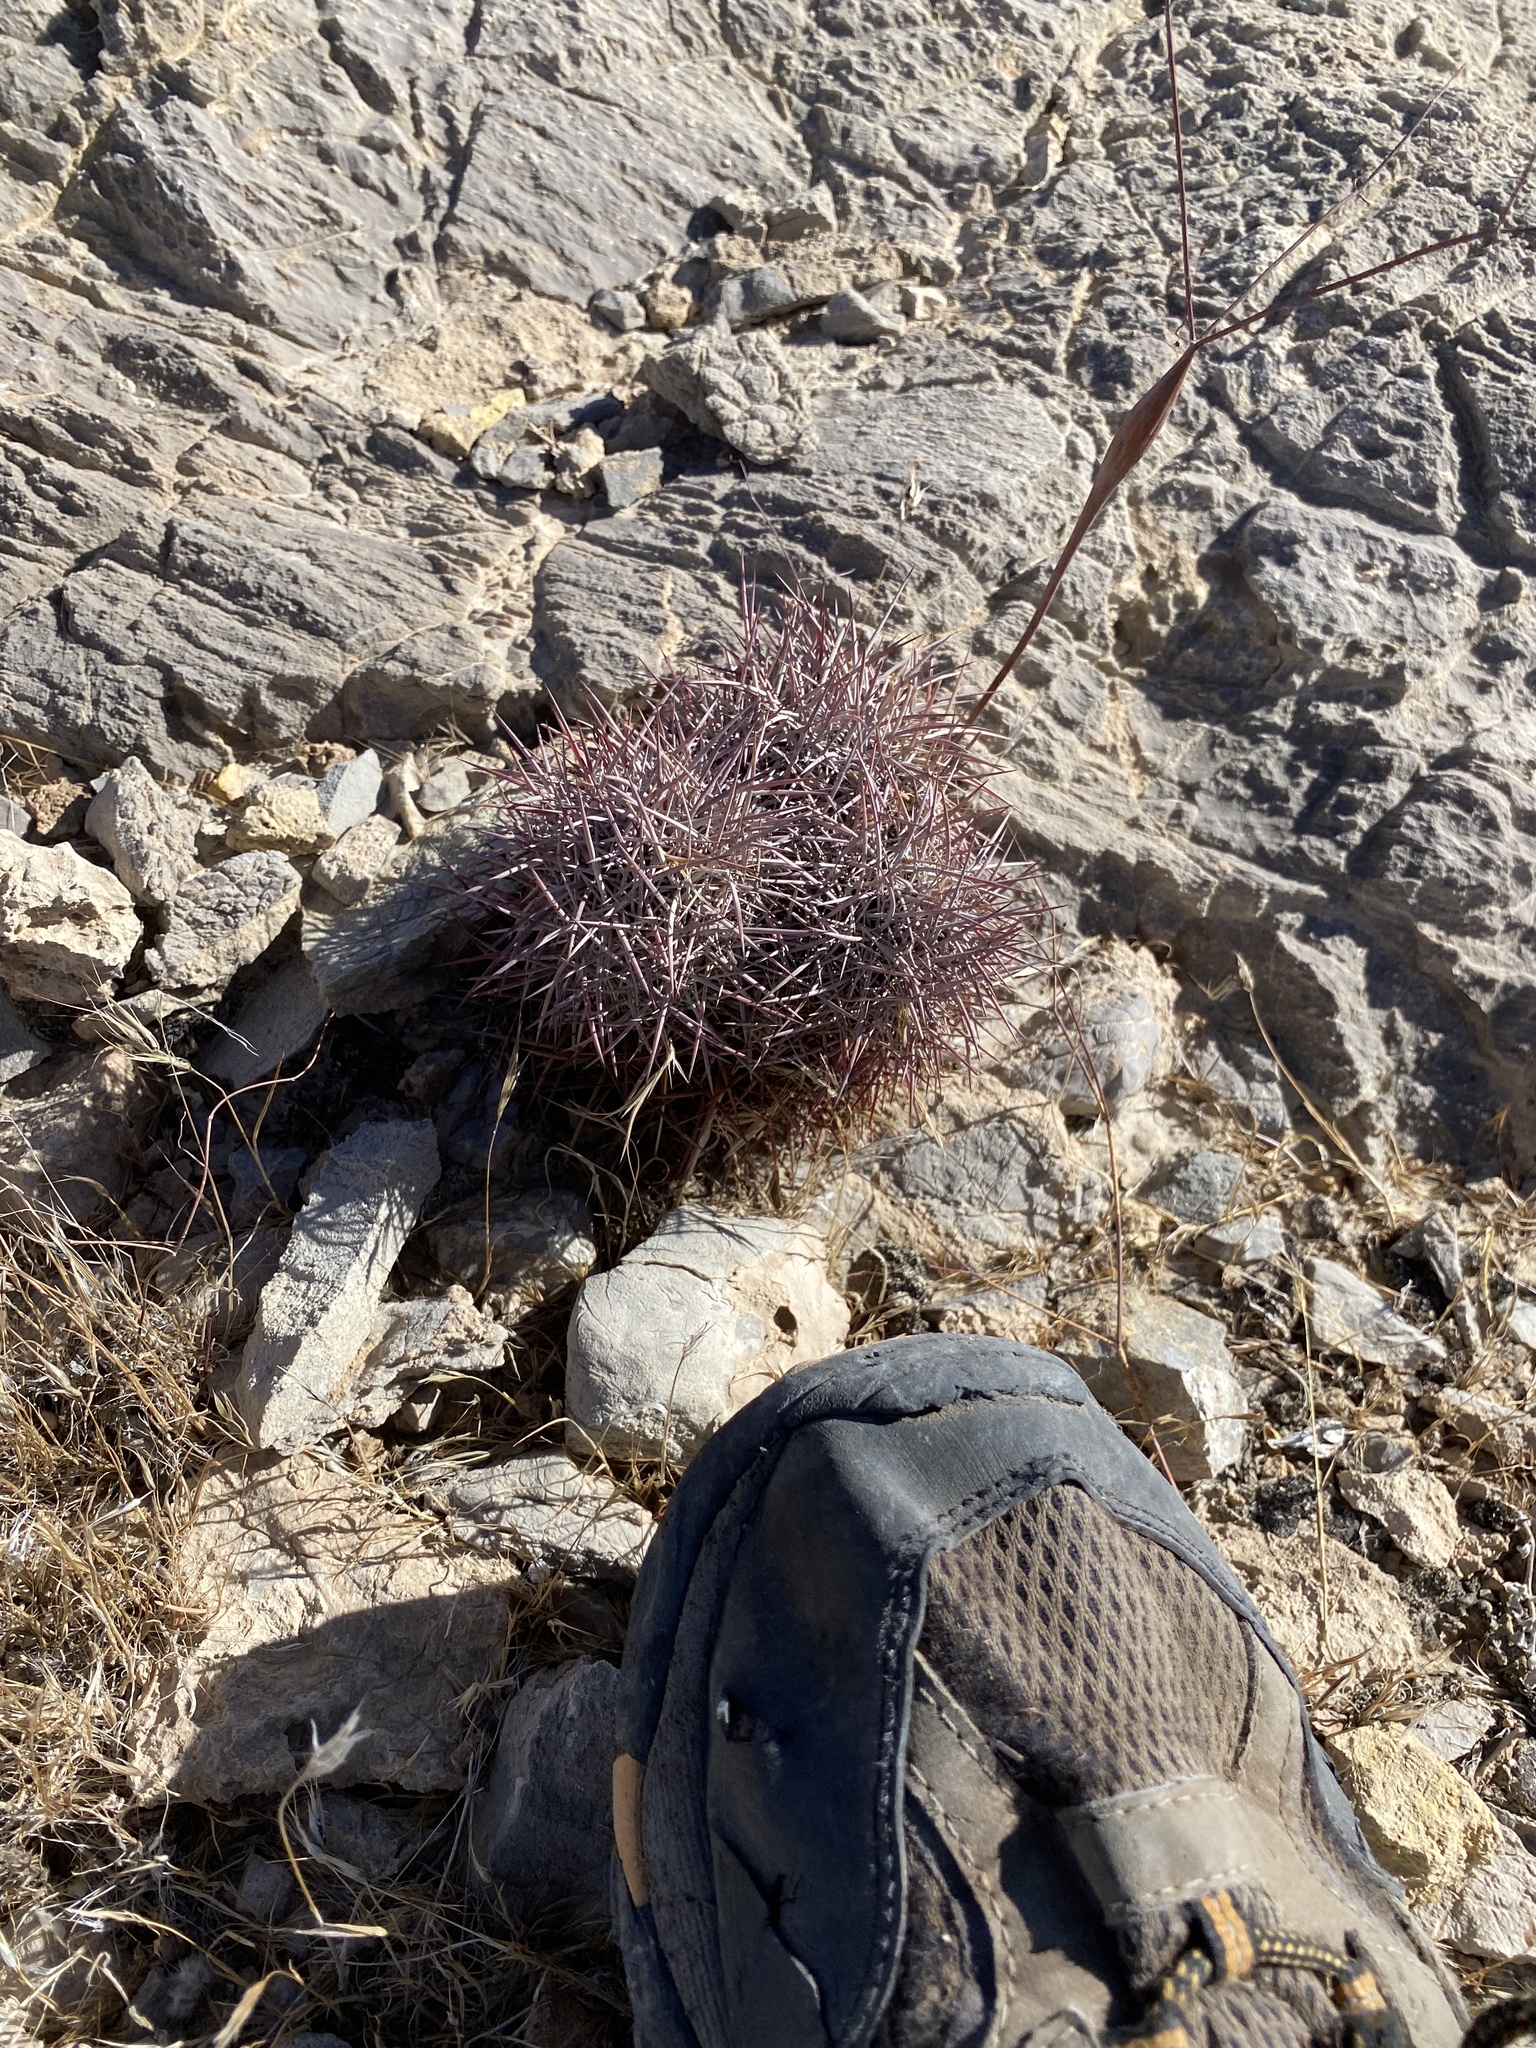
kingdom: Plantae
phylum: Tracheophyta
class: Magnoliopsida
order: Caryophyllales
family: Cactaceae
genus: Sclerocactus
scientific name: Sclerocactus johnsonii
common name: Eight-spine fishhook cactus
